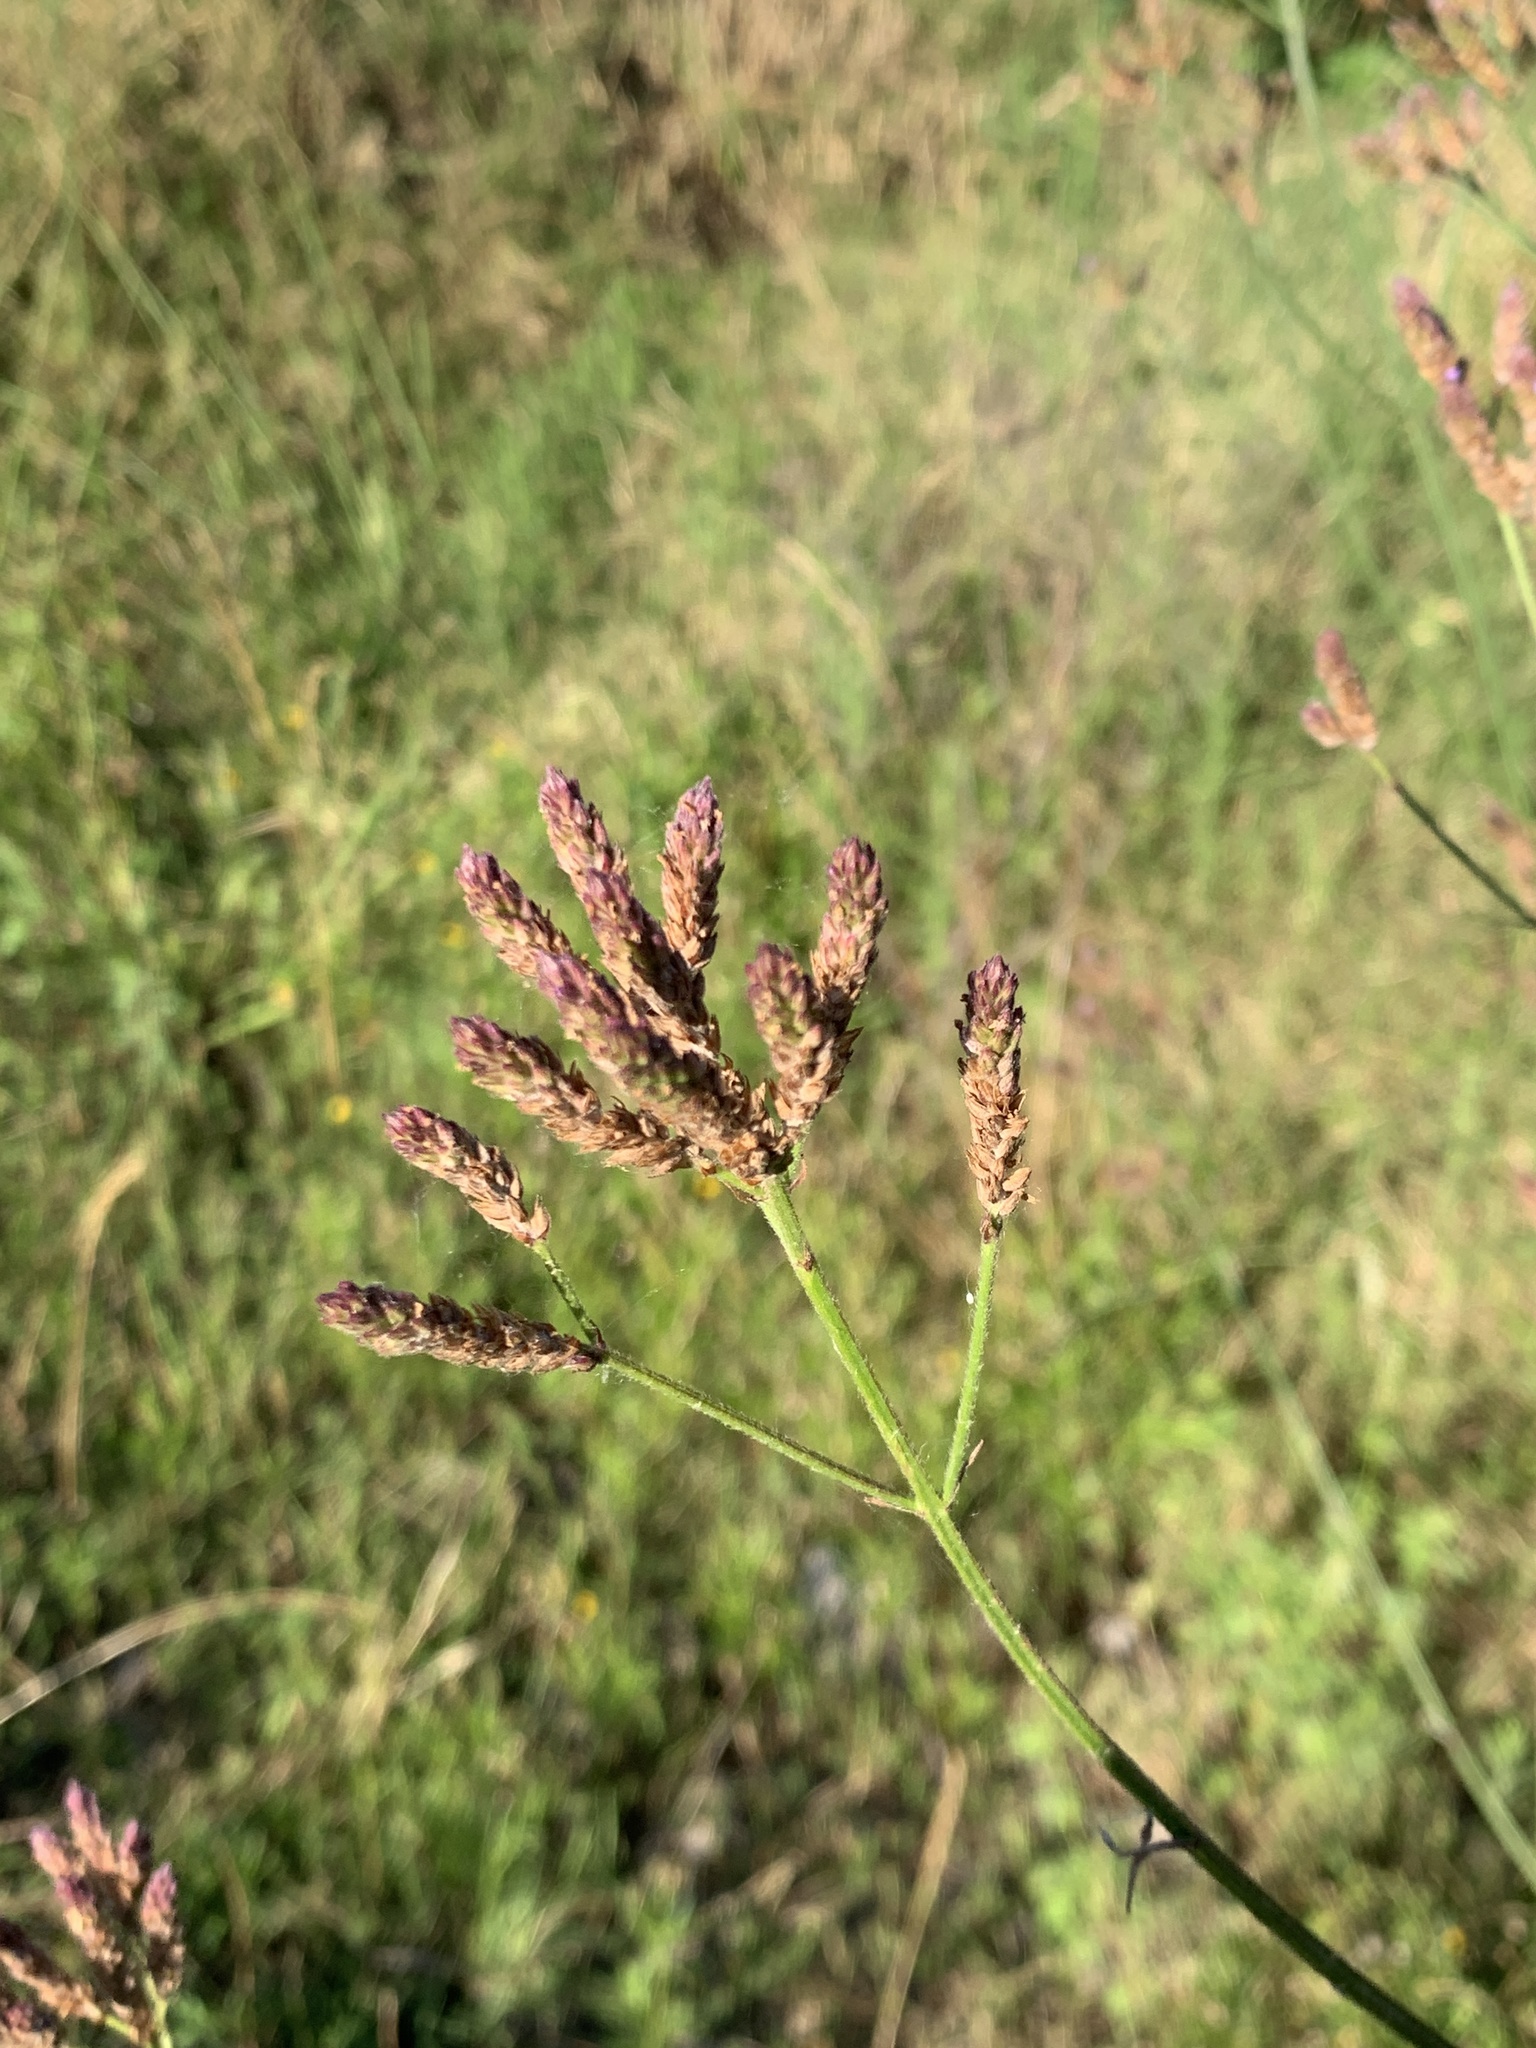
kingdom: Plantae
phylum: Tracheophyta
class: Magnoliopsida
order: Lamiales
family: Verbenaceae
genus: Verbena
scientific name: Verbena litoralis
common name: Seashore vervain
